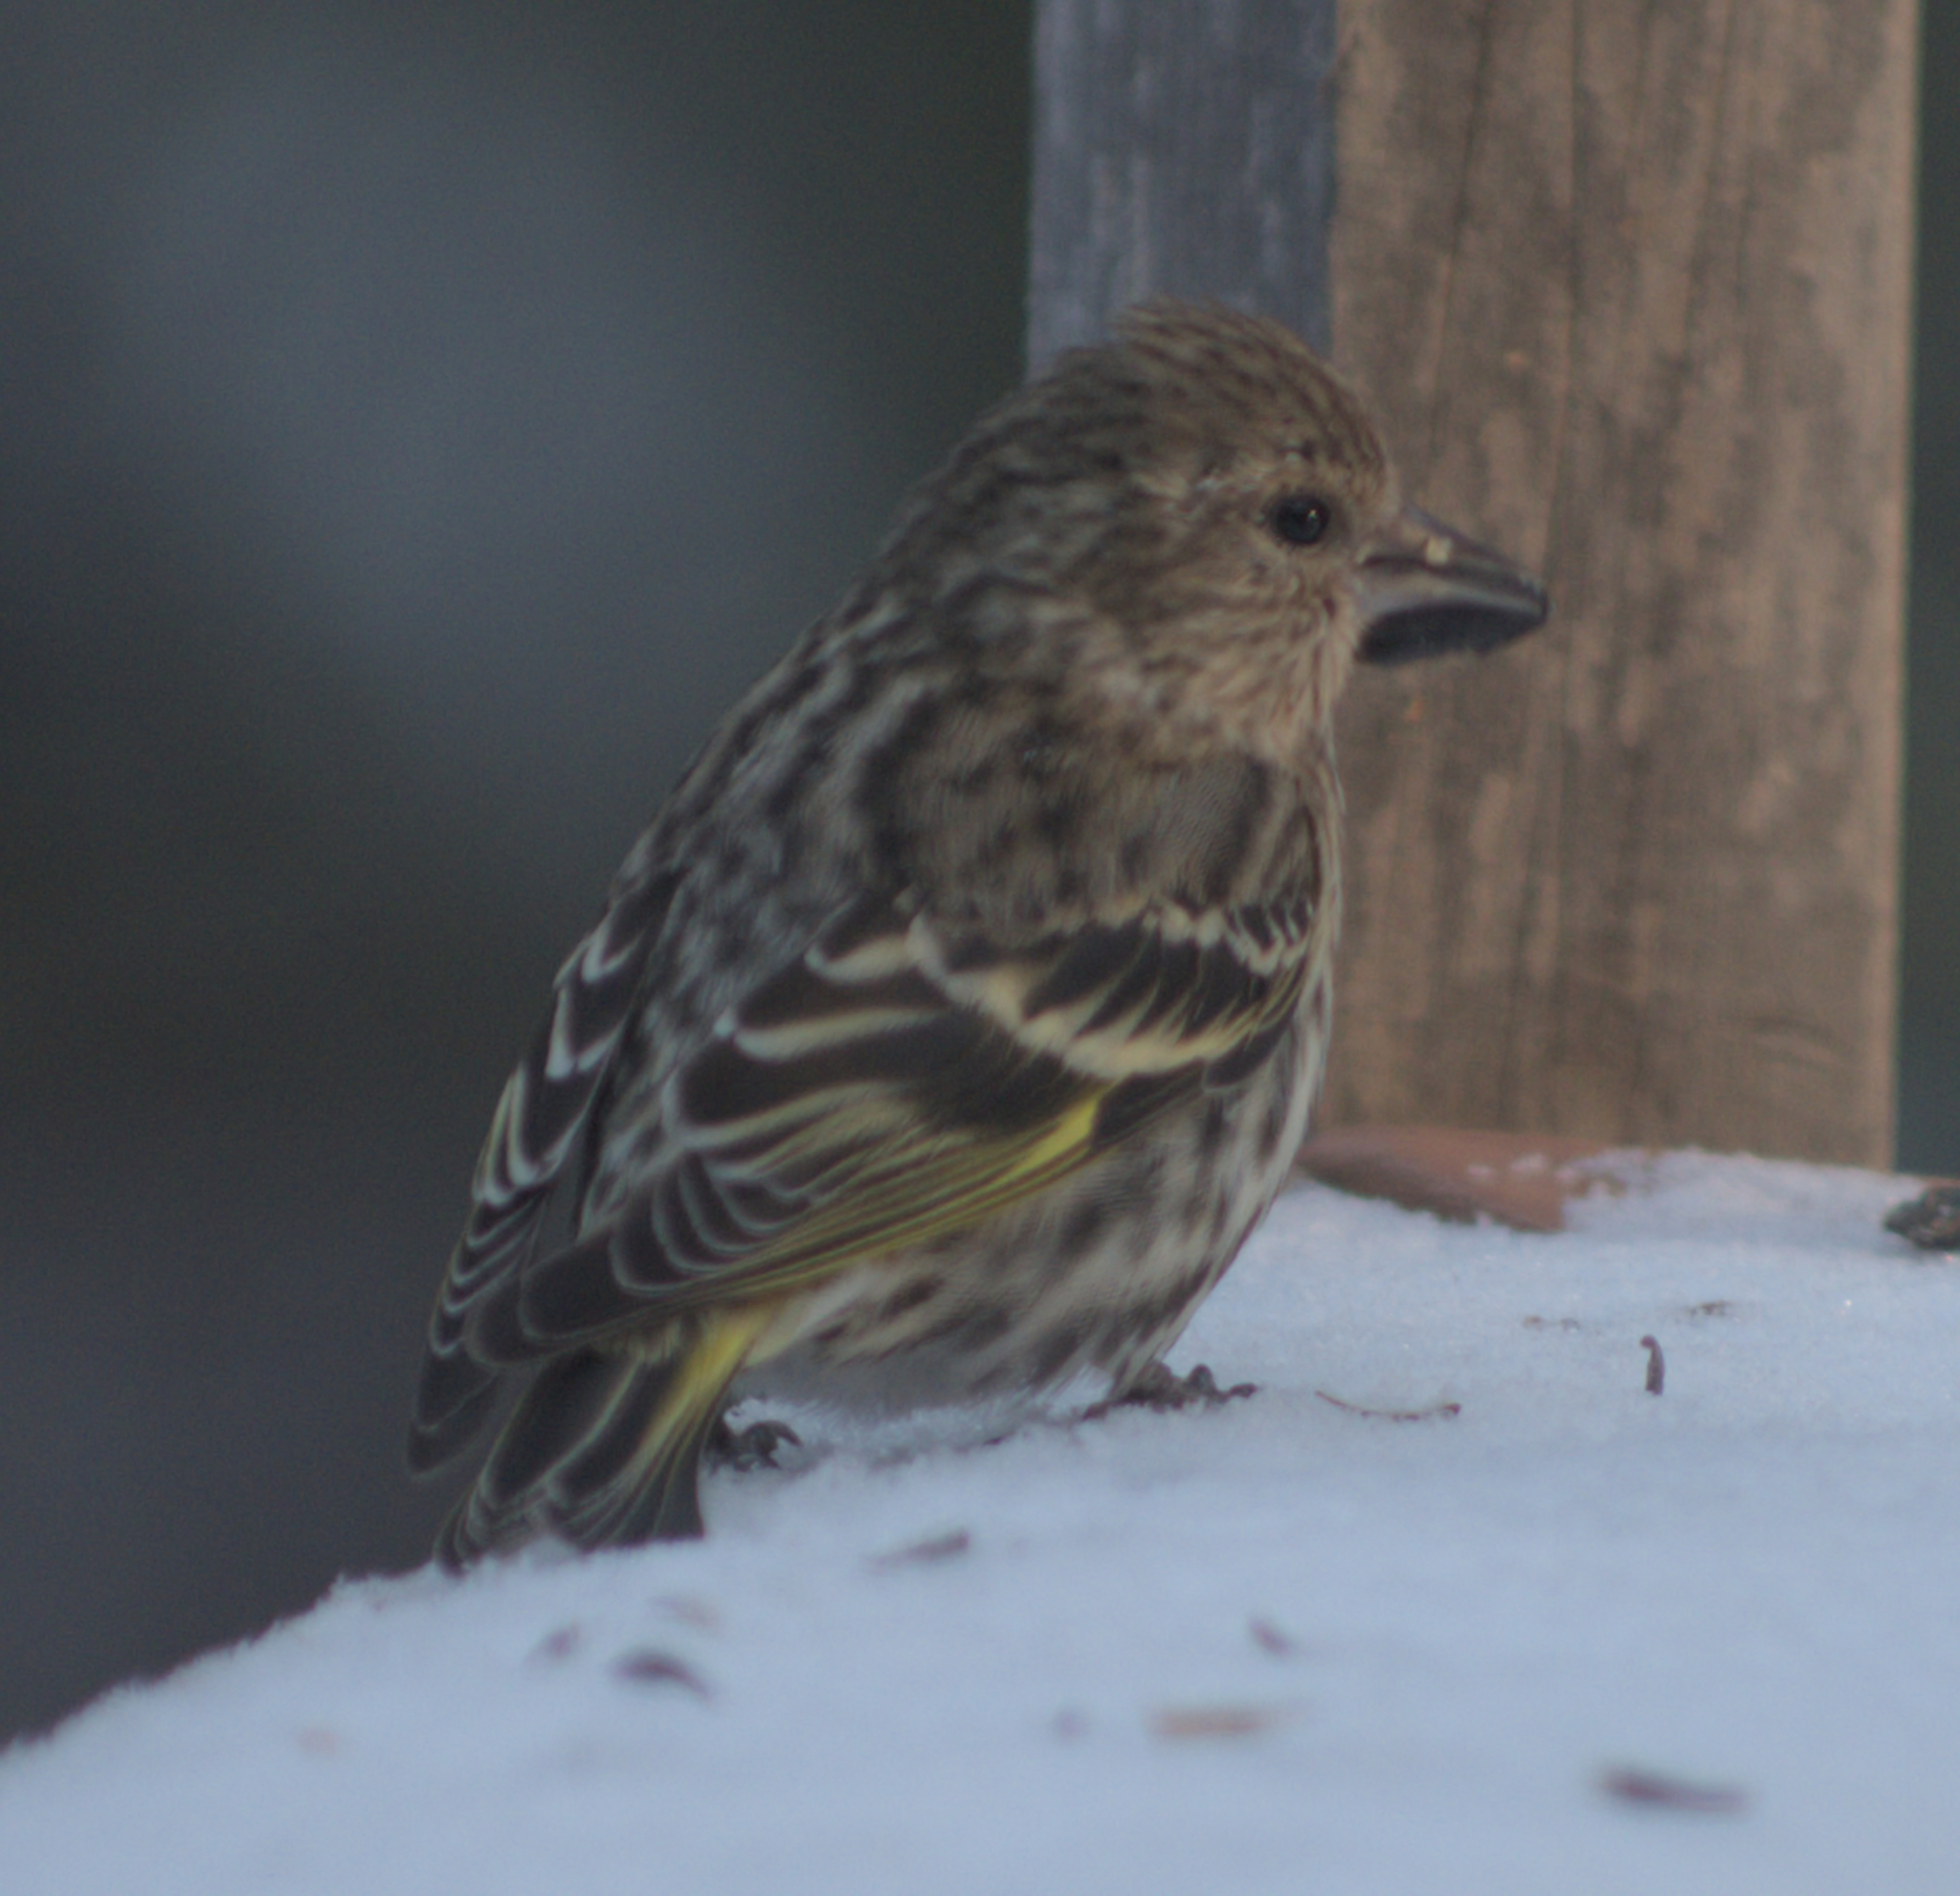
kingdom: Animalia
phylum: Chordata
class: Aves
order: Passeriformes
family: Fringillidae
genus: Spinus
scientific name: Spinus pinus
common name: Pine siskin
